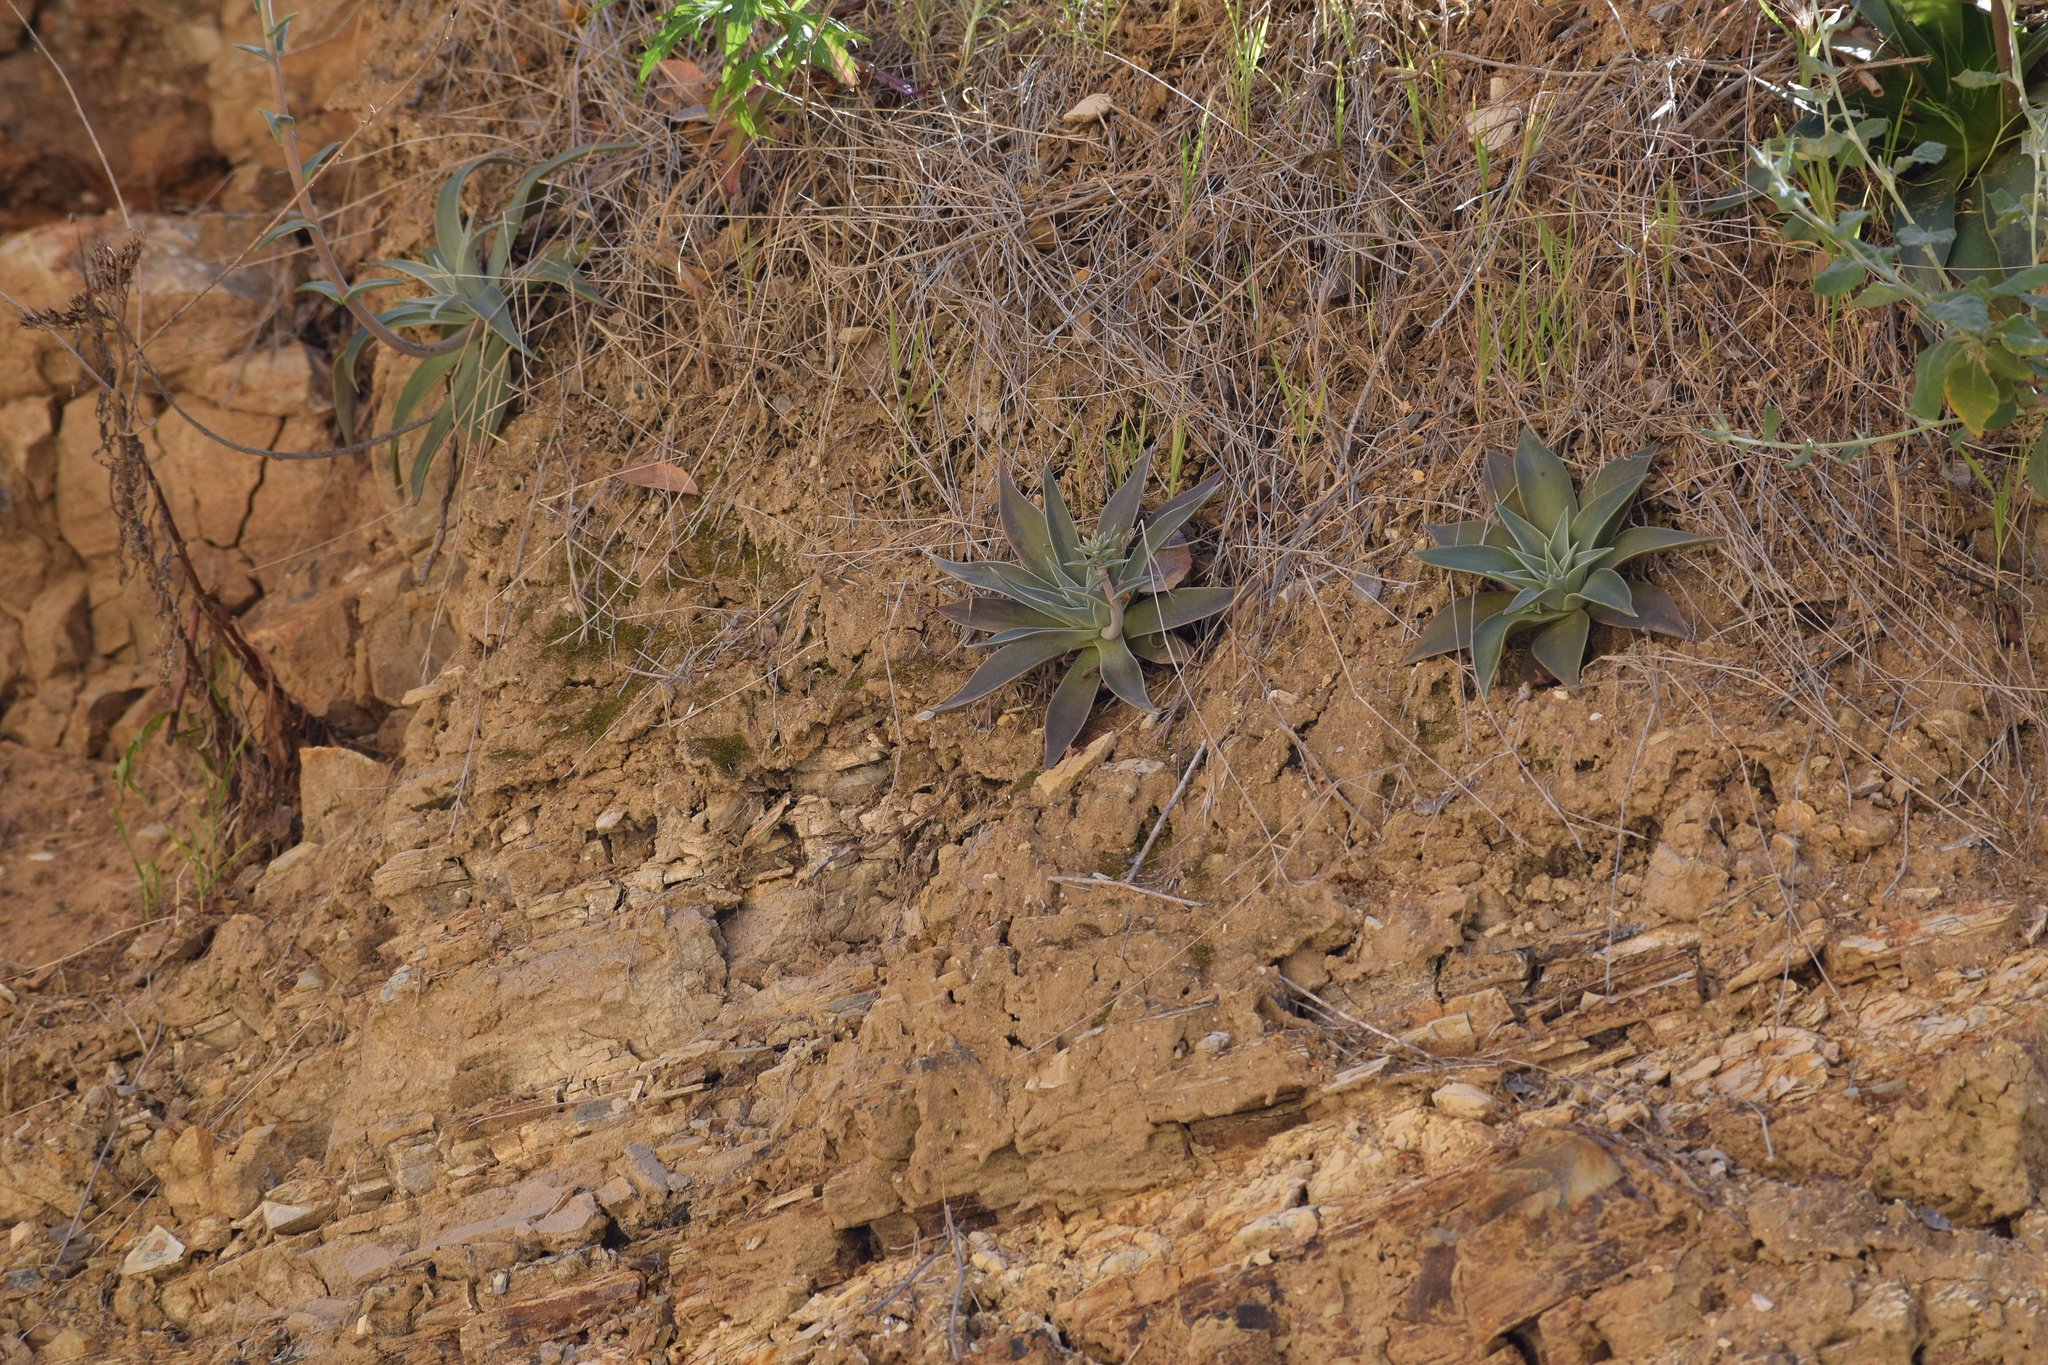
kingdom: Plantae
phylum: Tracheophyta
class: Magnoliopsida
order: Saxifragales
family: Crassulaceae
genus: Dudleya
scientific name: Dudleya lanceolata
